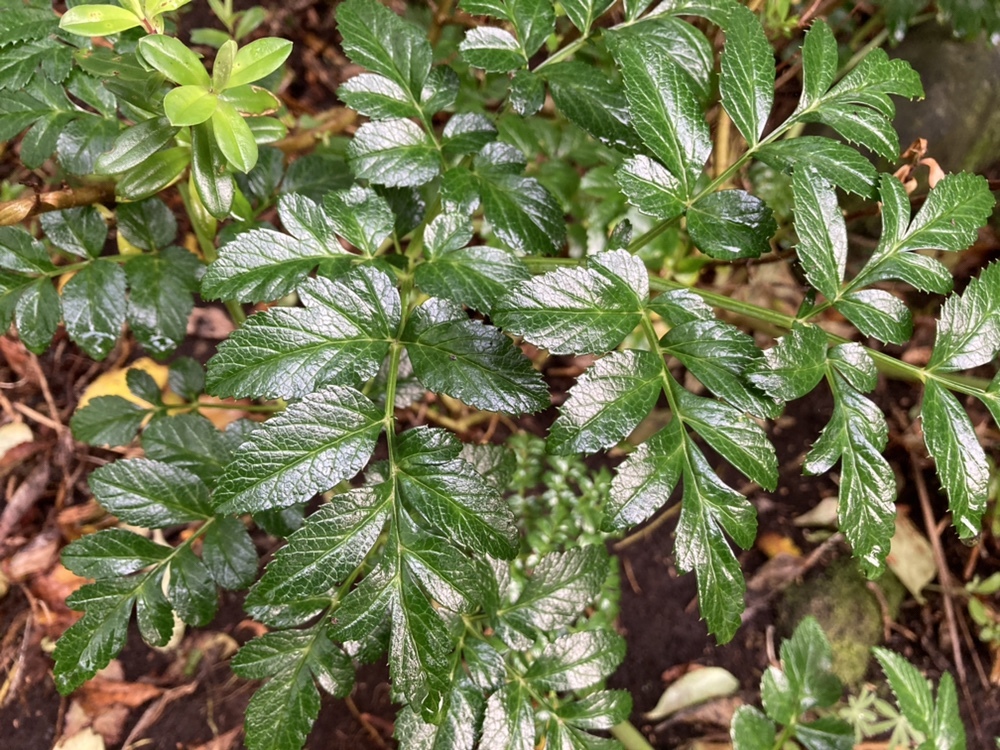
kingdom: Plantae
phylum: Tracheophyta
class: Magnoliopsida
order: Apiales
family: Apiaceae
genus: Angelica
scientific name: Angelica pachycarpa
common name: Portuguese angelica
